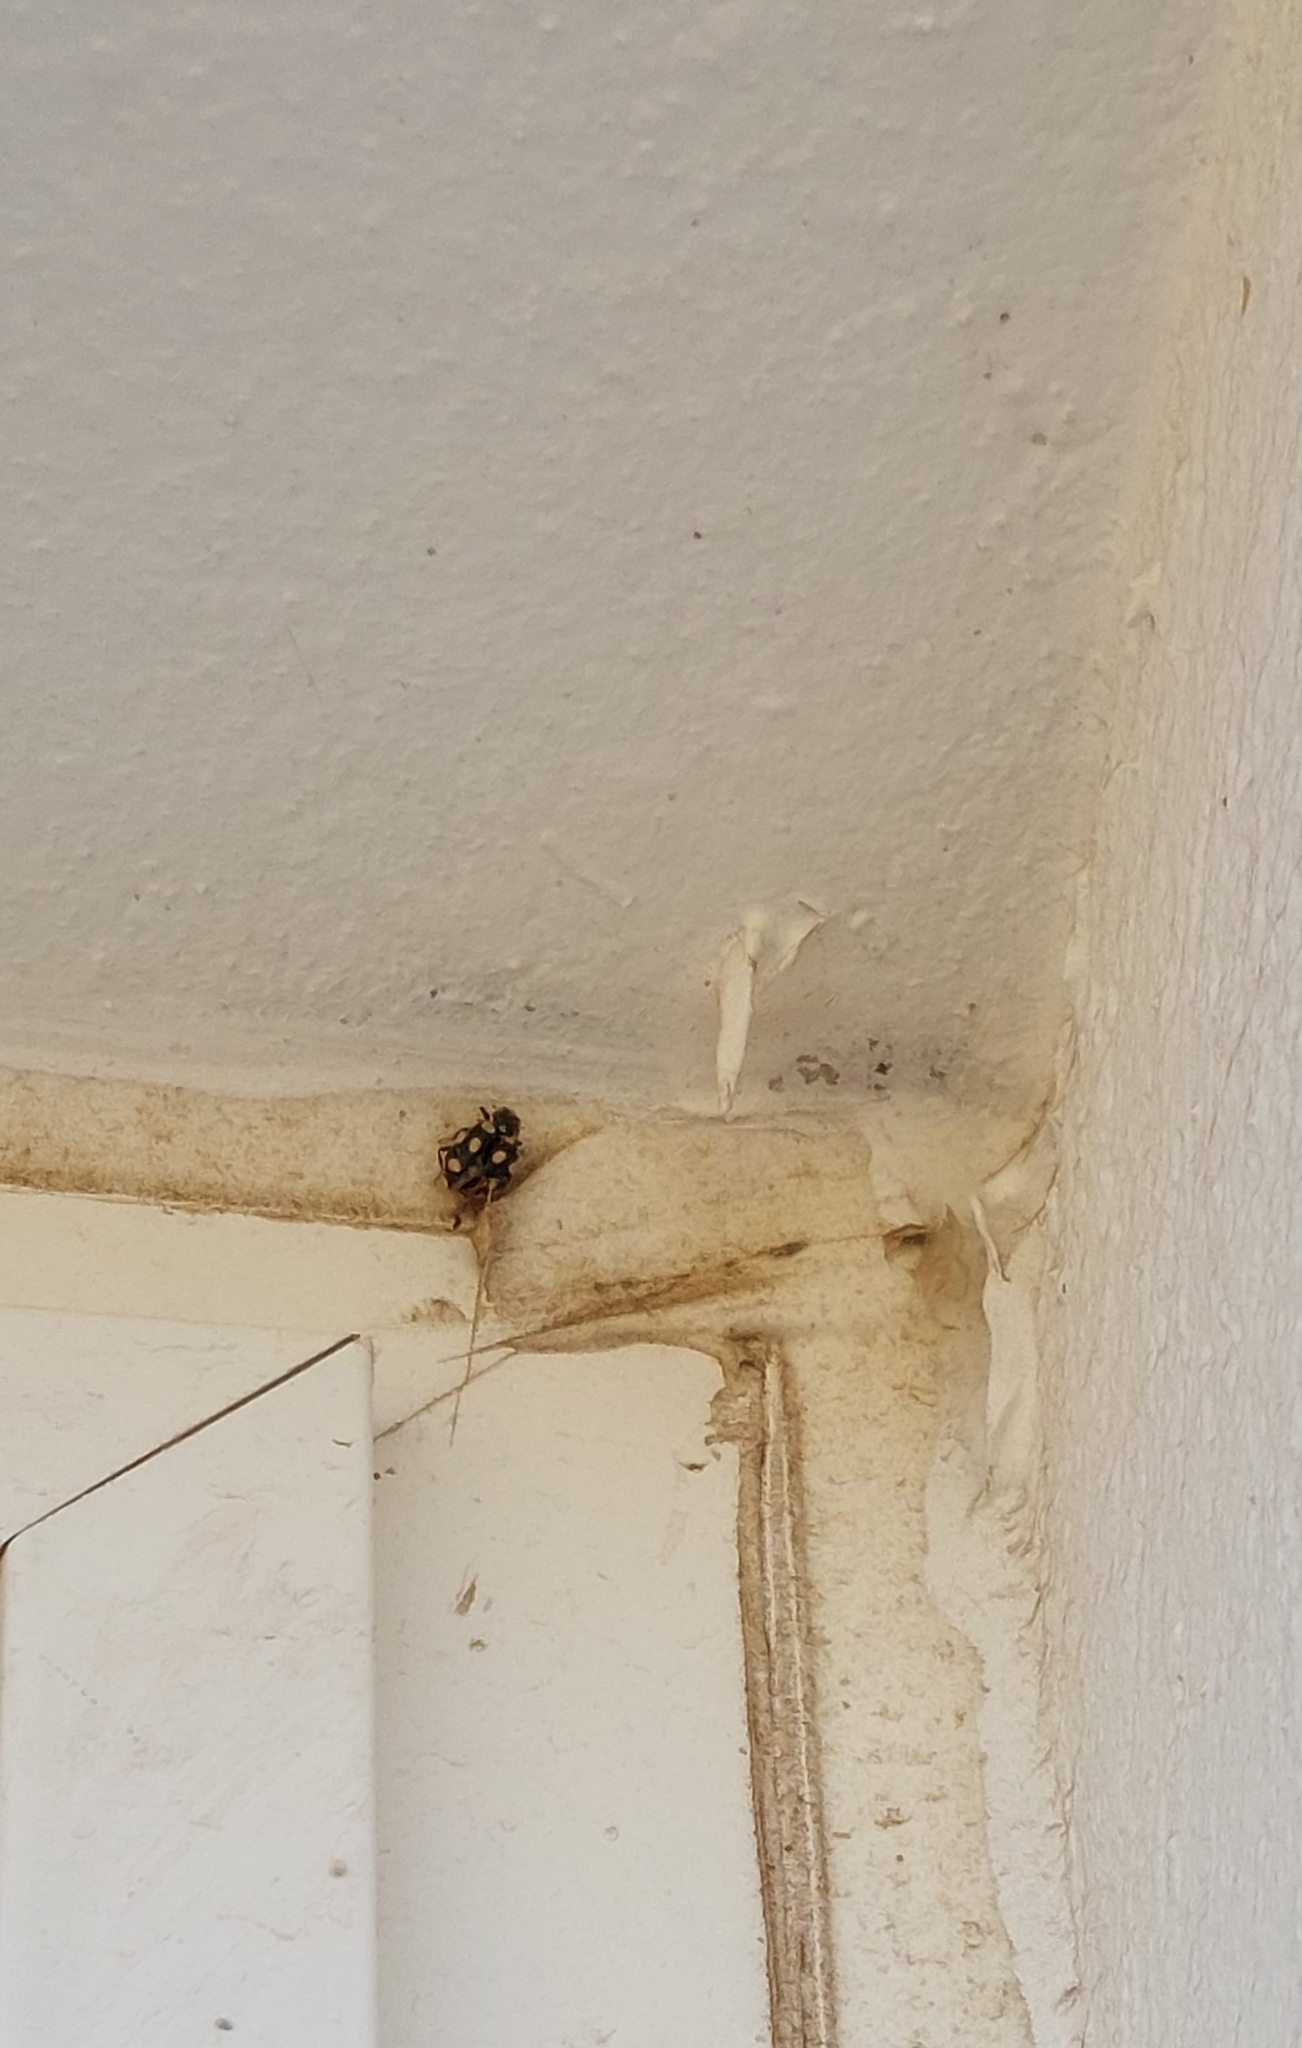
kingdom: Animalia
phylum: Arthropoda
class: Insecta
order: Coleoptera
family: Coccinellidae
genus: Eriopis
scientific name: Eriopis connexa
